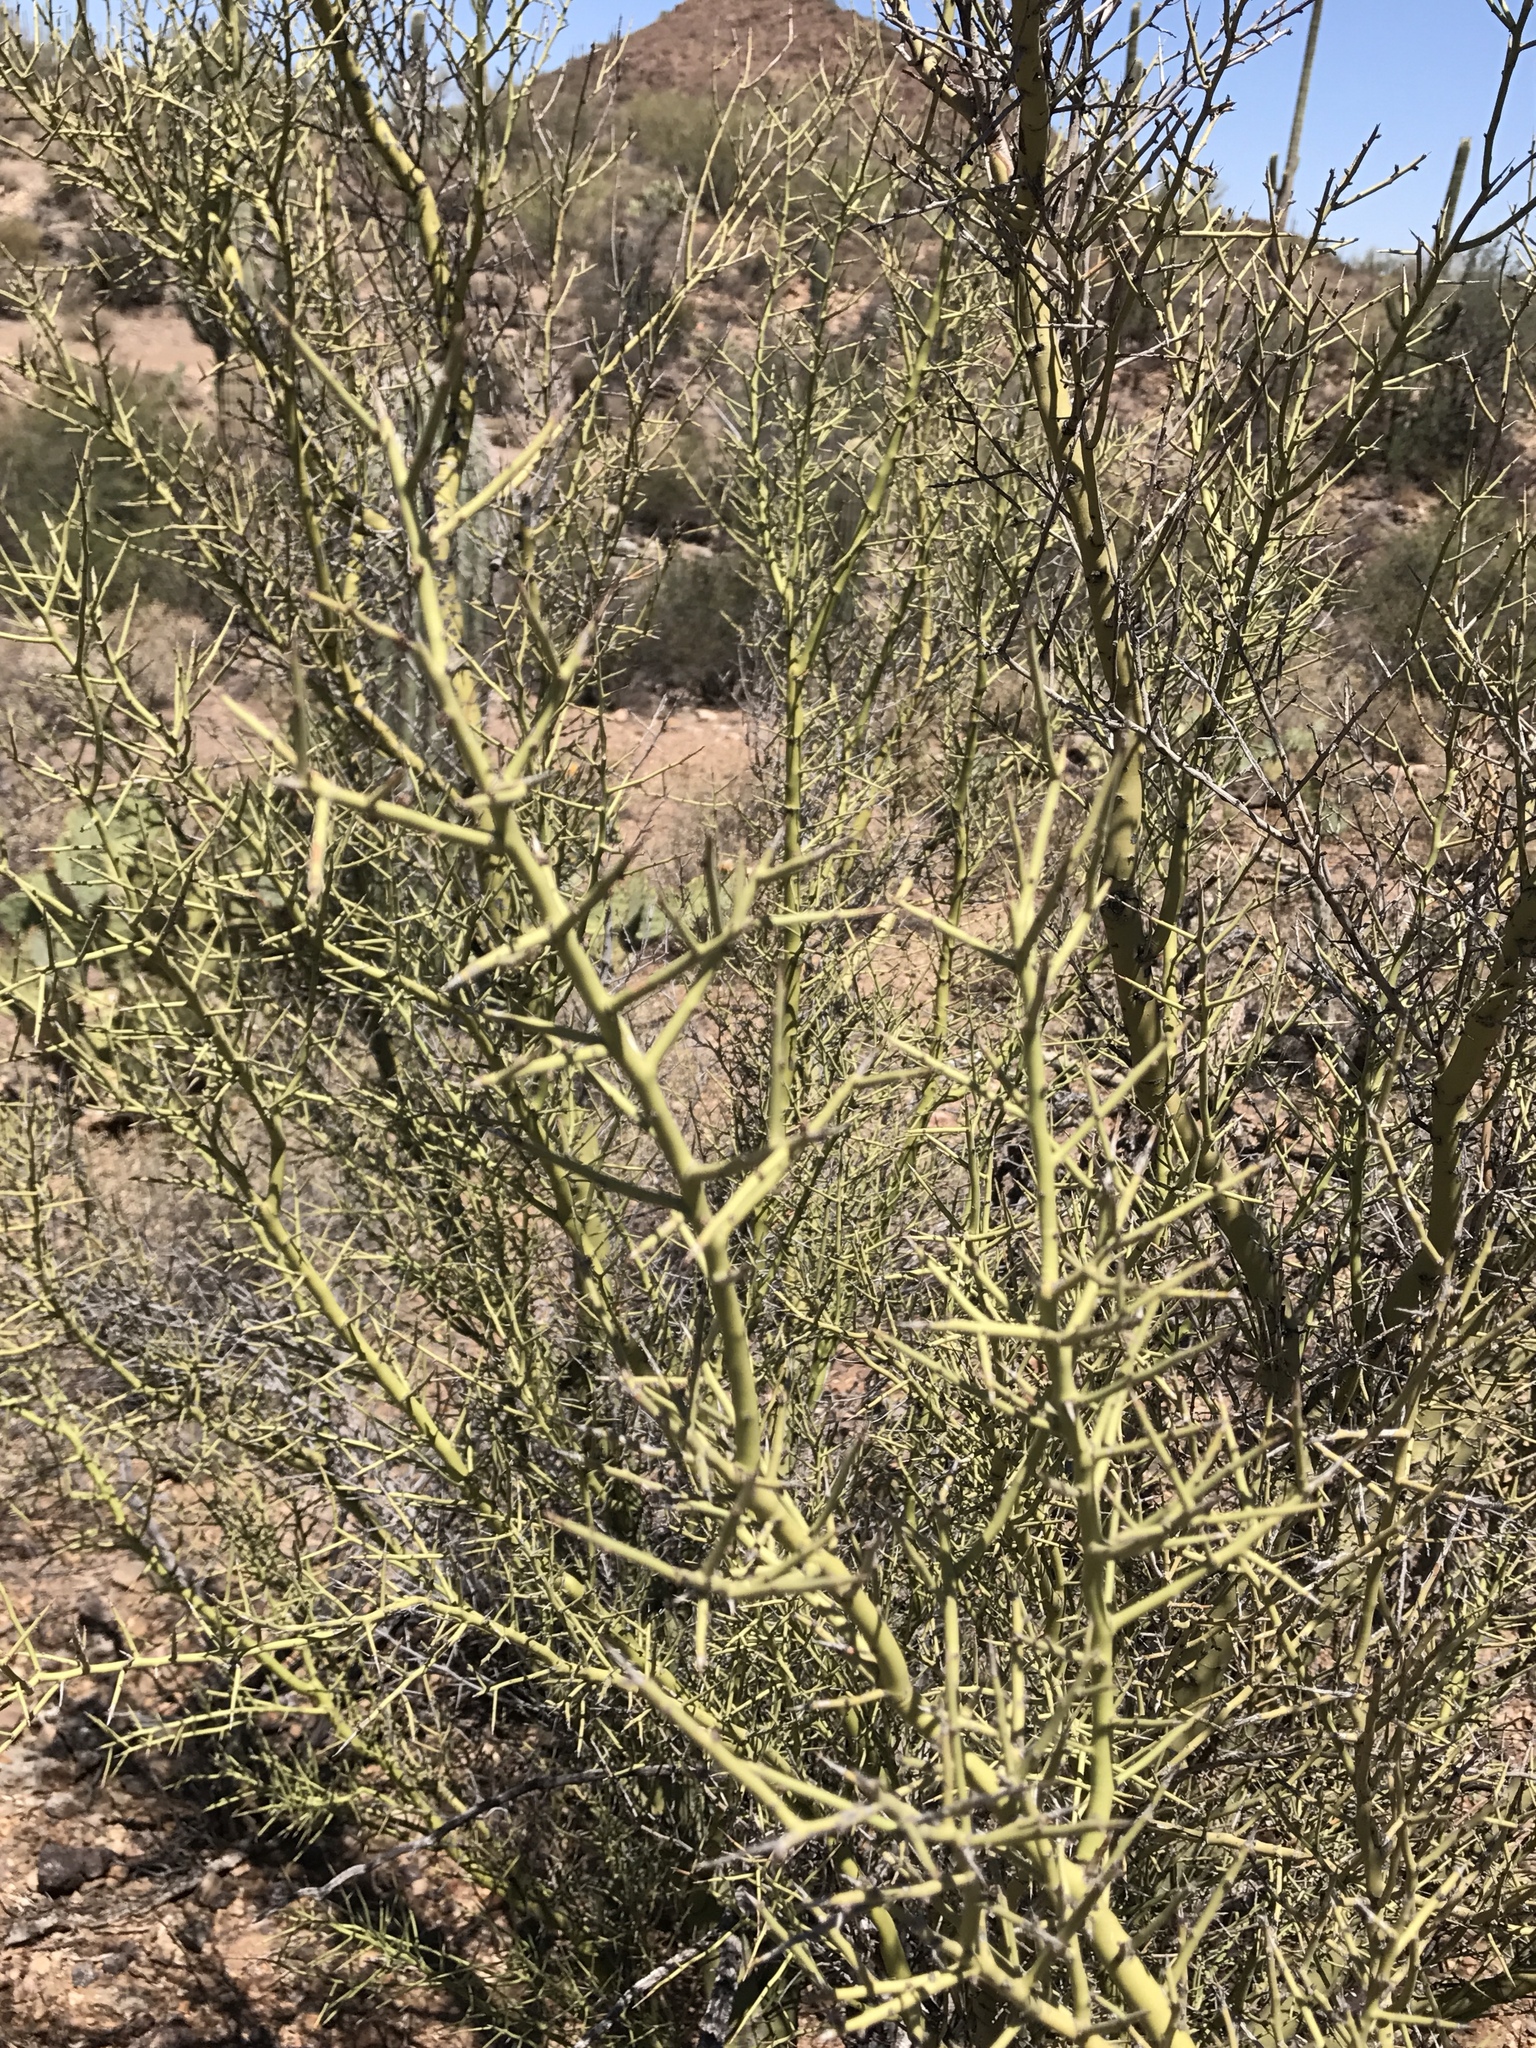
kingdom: Plantae
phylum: Tracheophyta
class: Magnoliopsida
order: Fabales
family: Fabaceae
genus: Parkinsonia
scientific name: Parkinsonia microphylla
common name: Yellow paloverde
